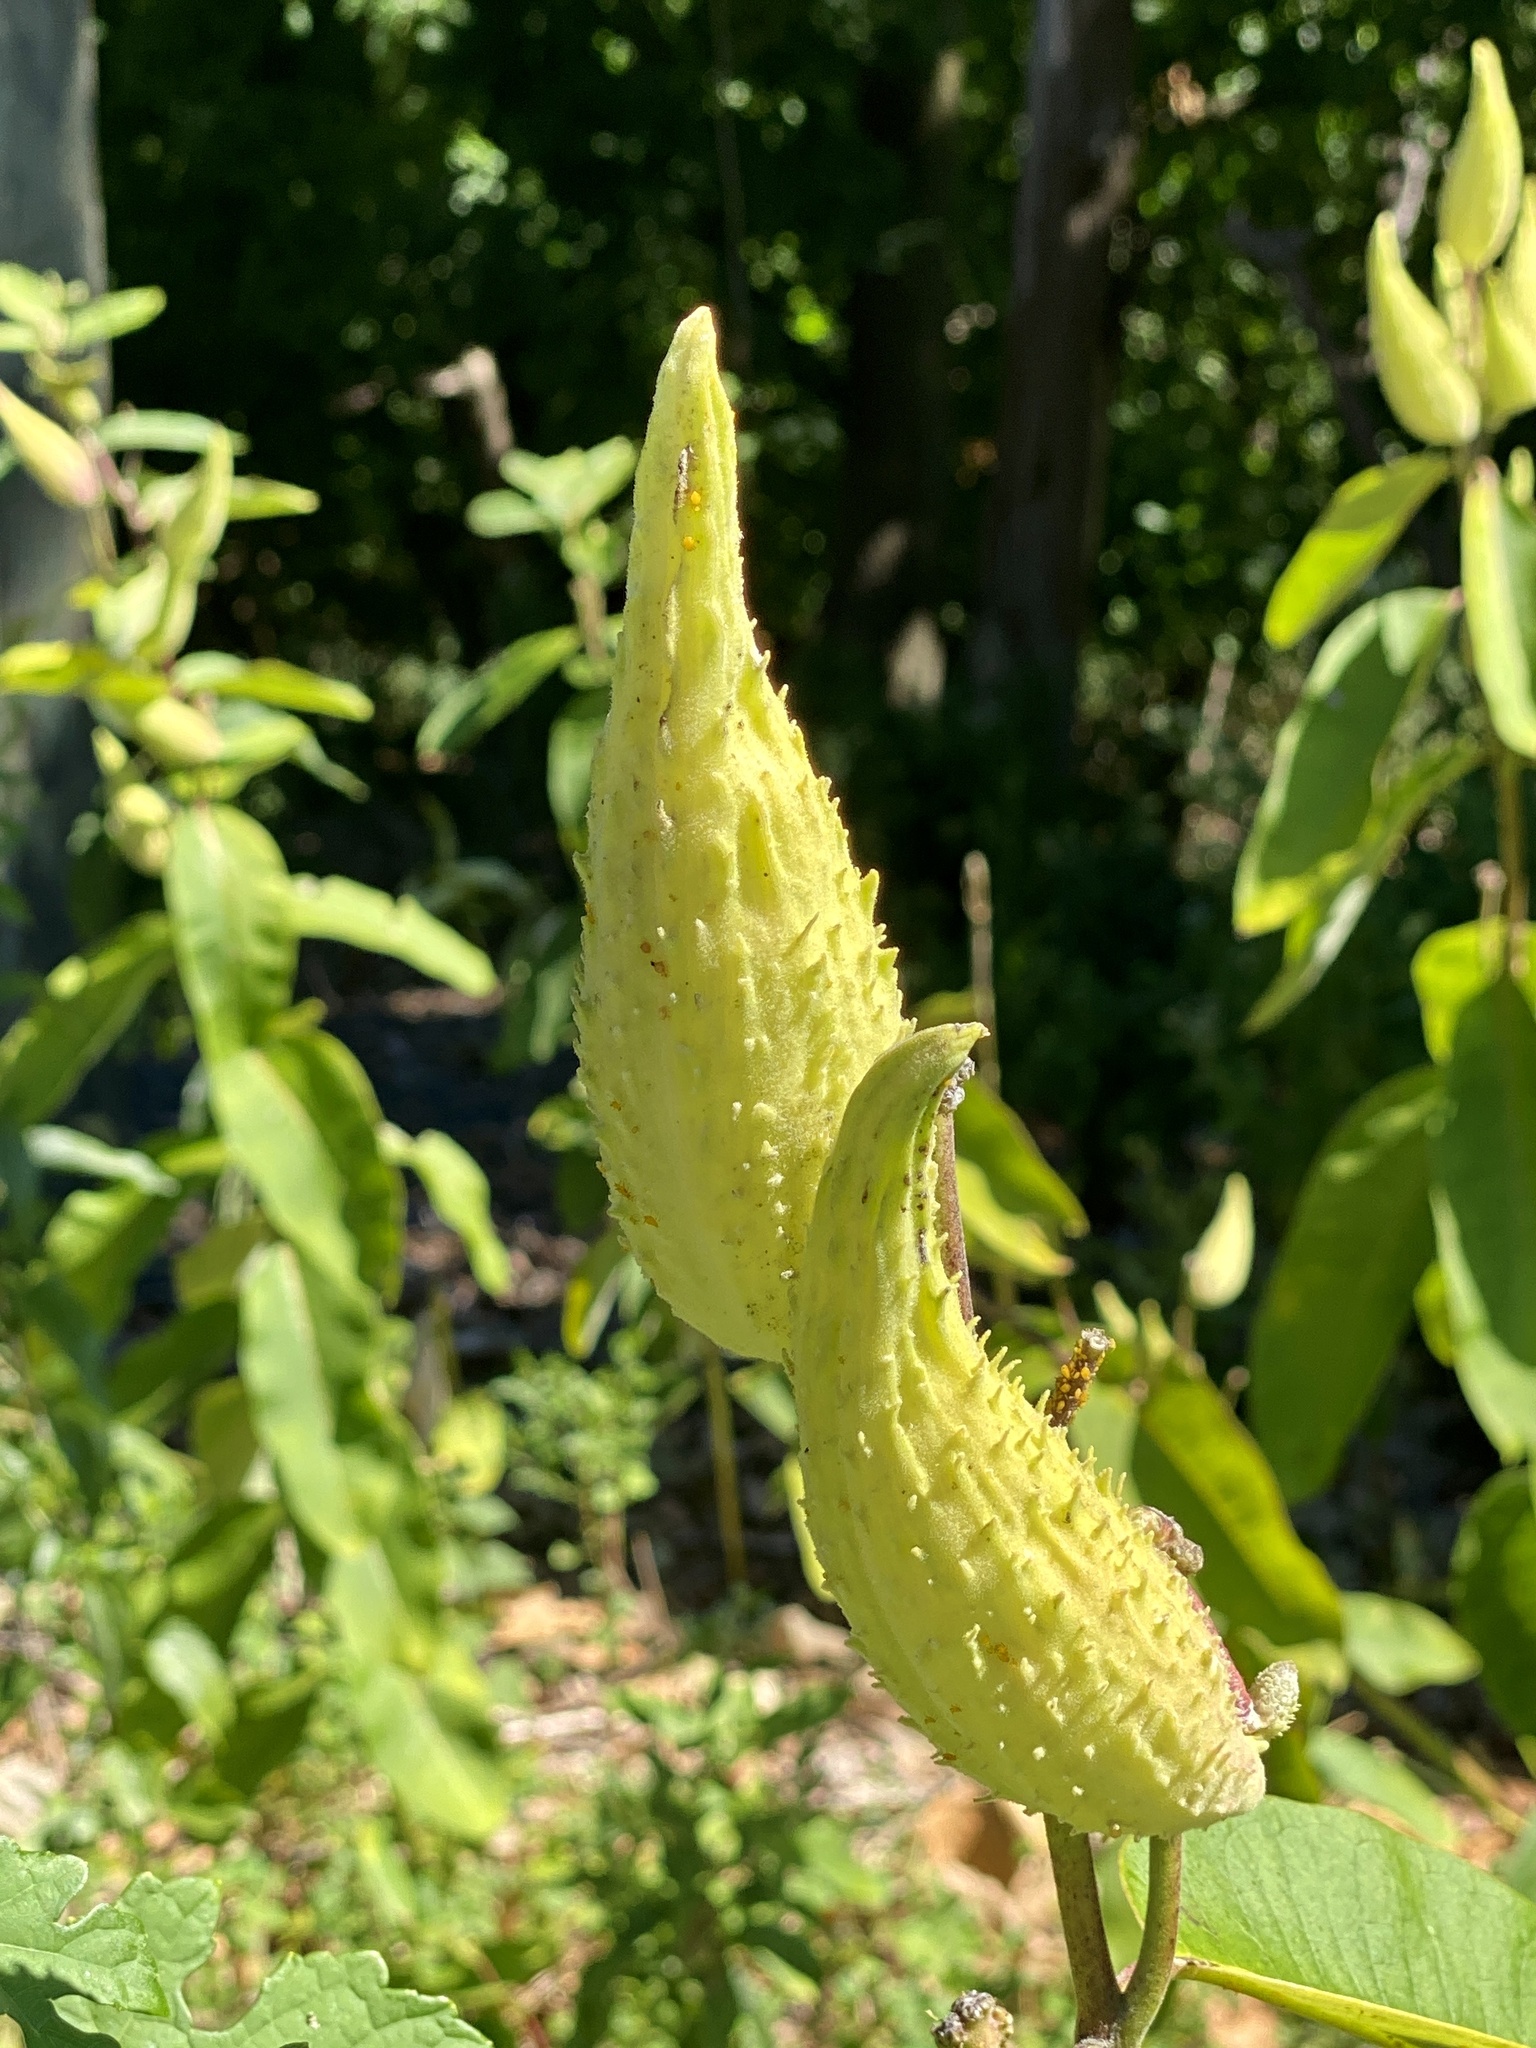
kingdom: Plantae
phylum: Tracheophyta
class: Magnoliopsida
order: Gentianales
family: Apocynaceae
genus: Asclepias
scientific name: Asclepias syriaca
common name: Common milkweed
